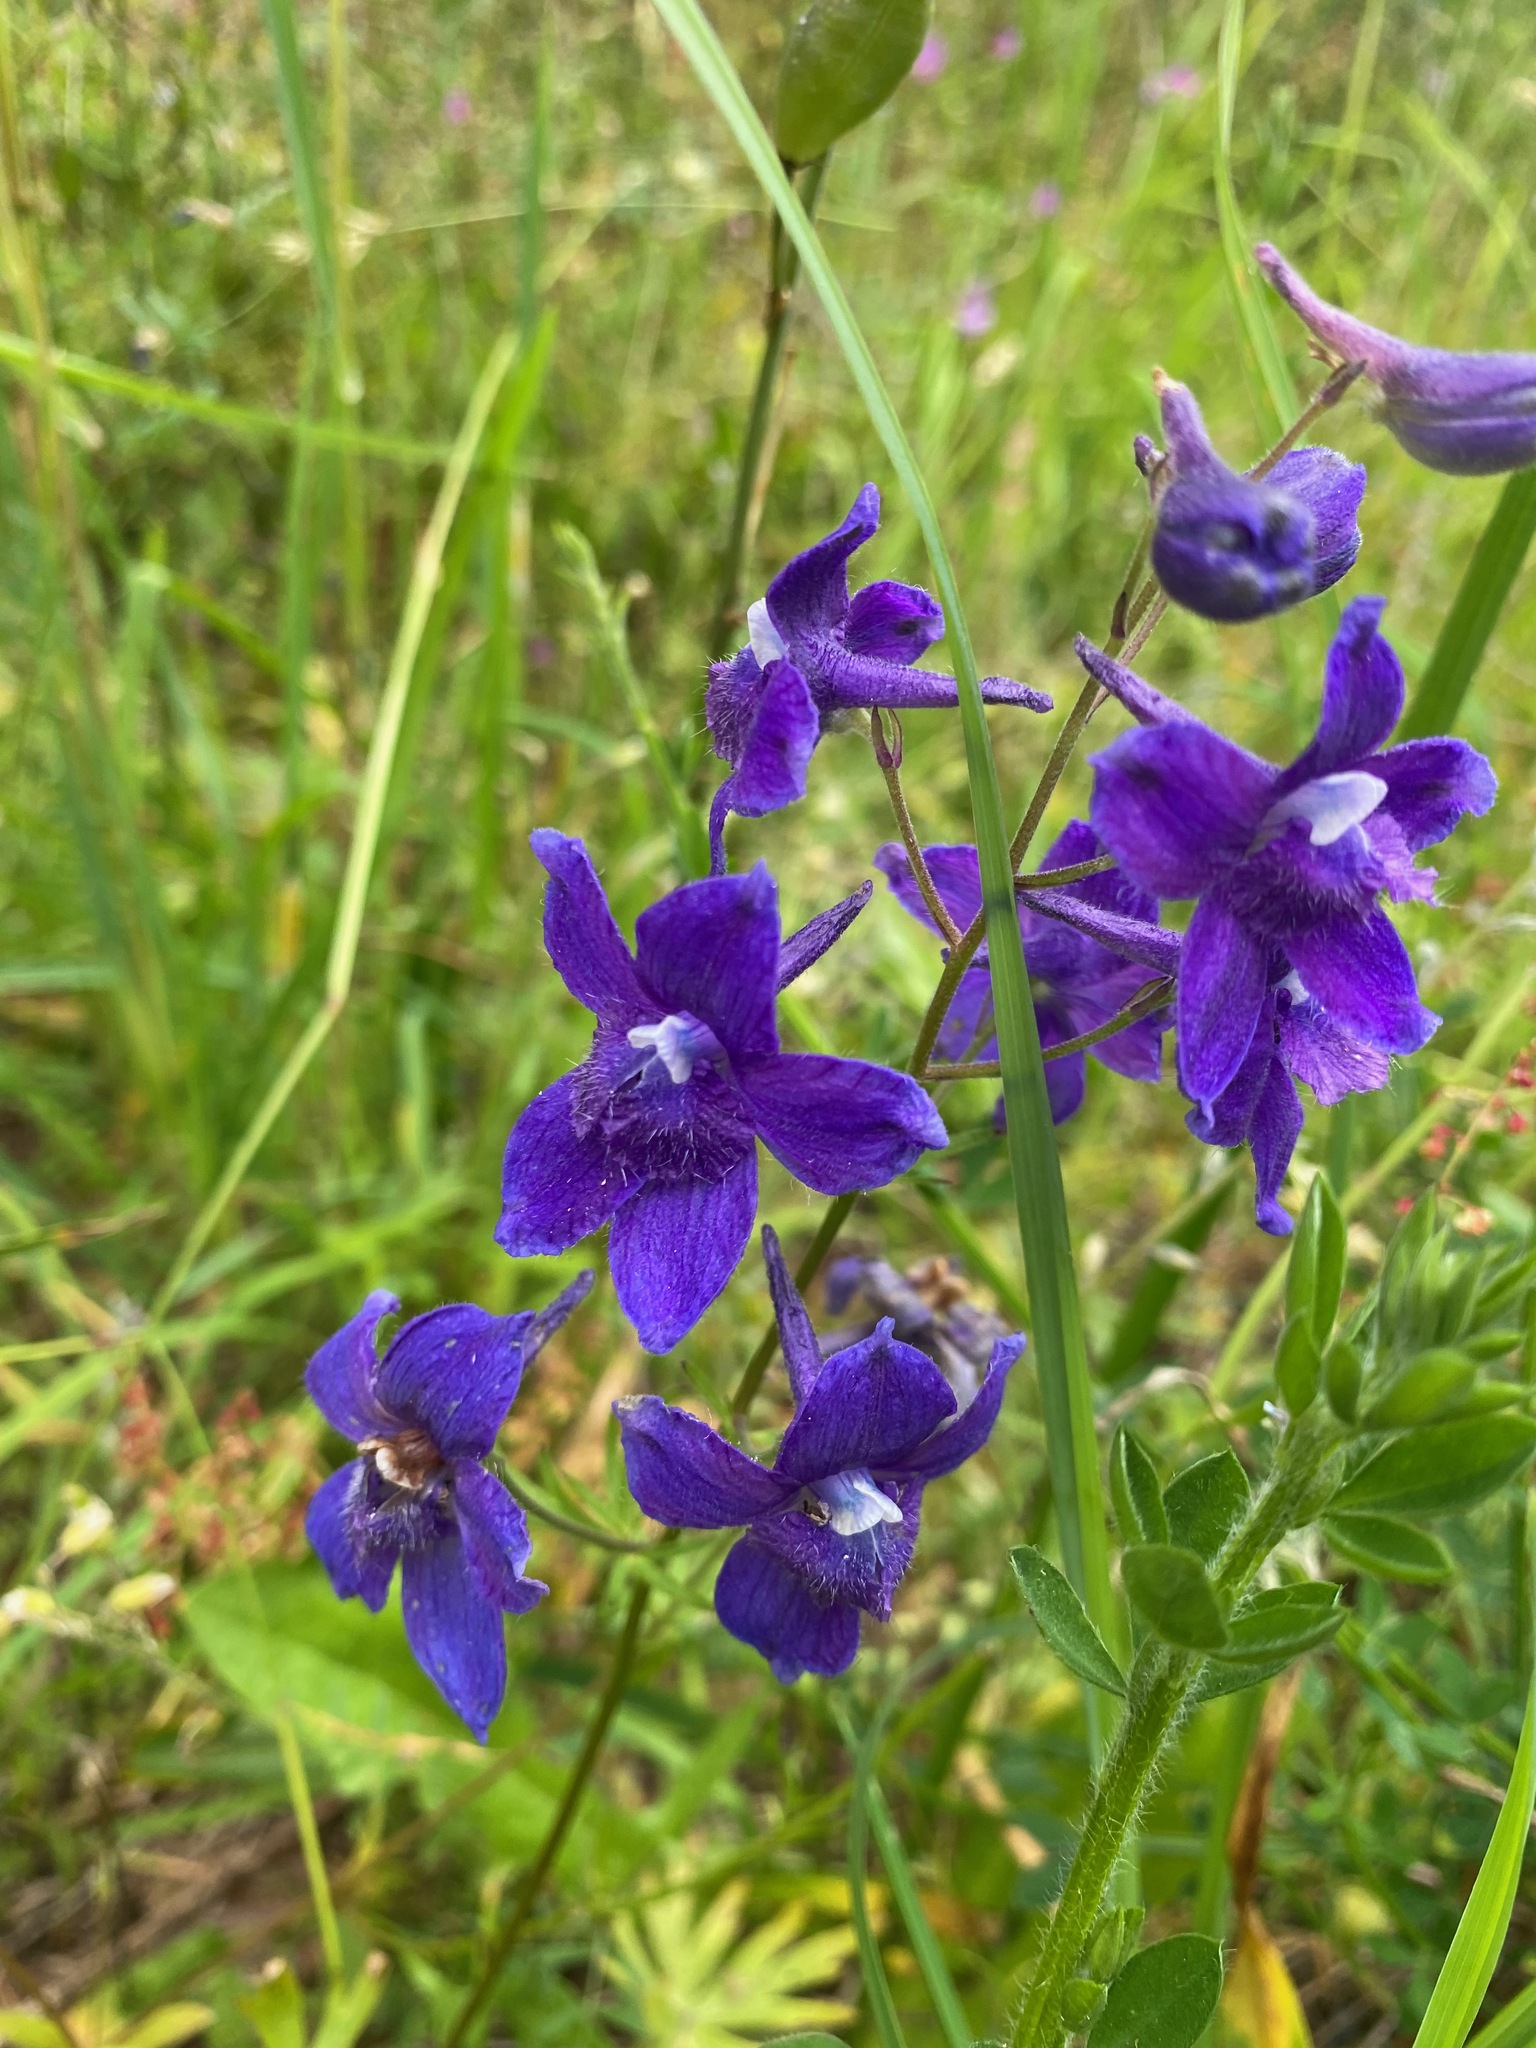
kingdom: Plantae
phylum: Tracheophyta
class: Magnoliopsida
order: Ranunculales
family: Ranunculaceae
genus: Delphinium
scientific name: Delphinium menziesii
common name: Menzies's larkspur
